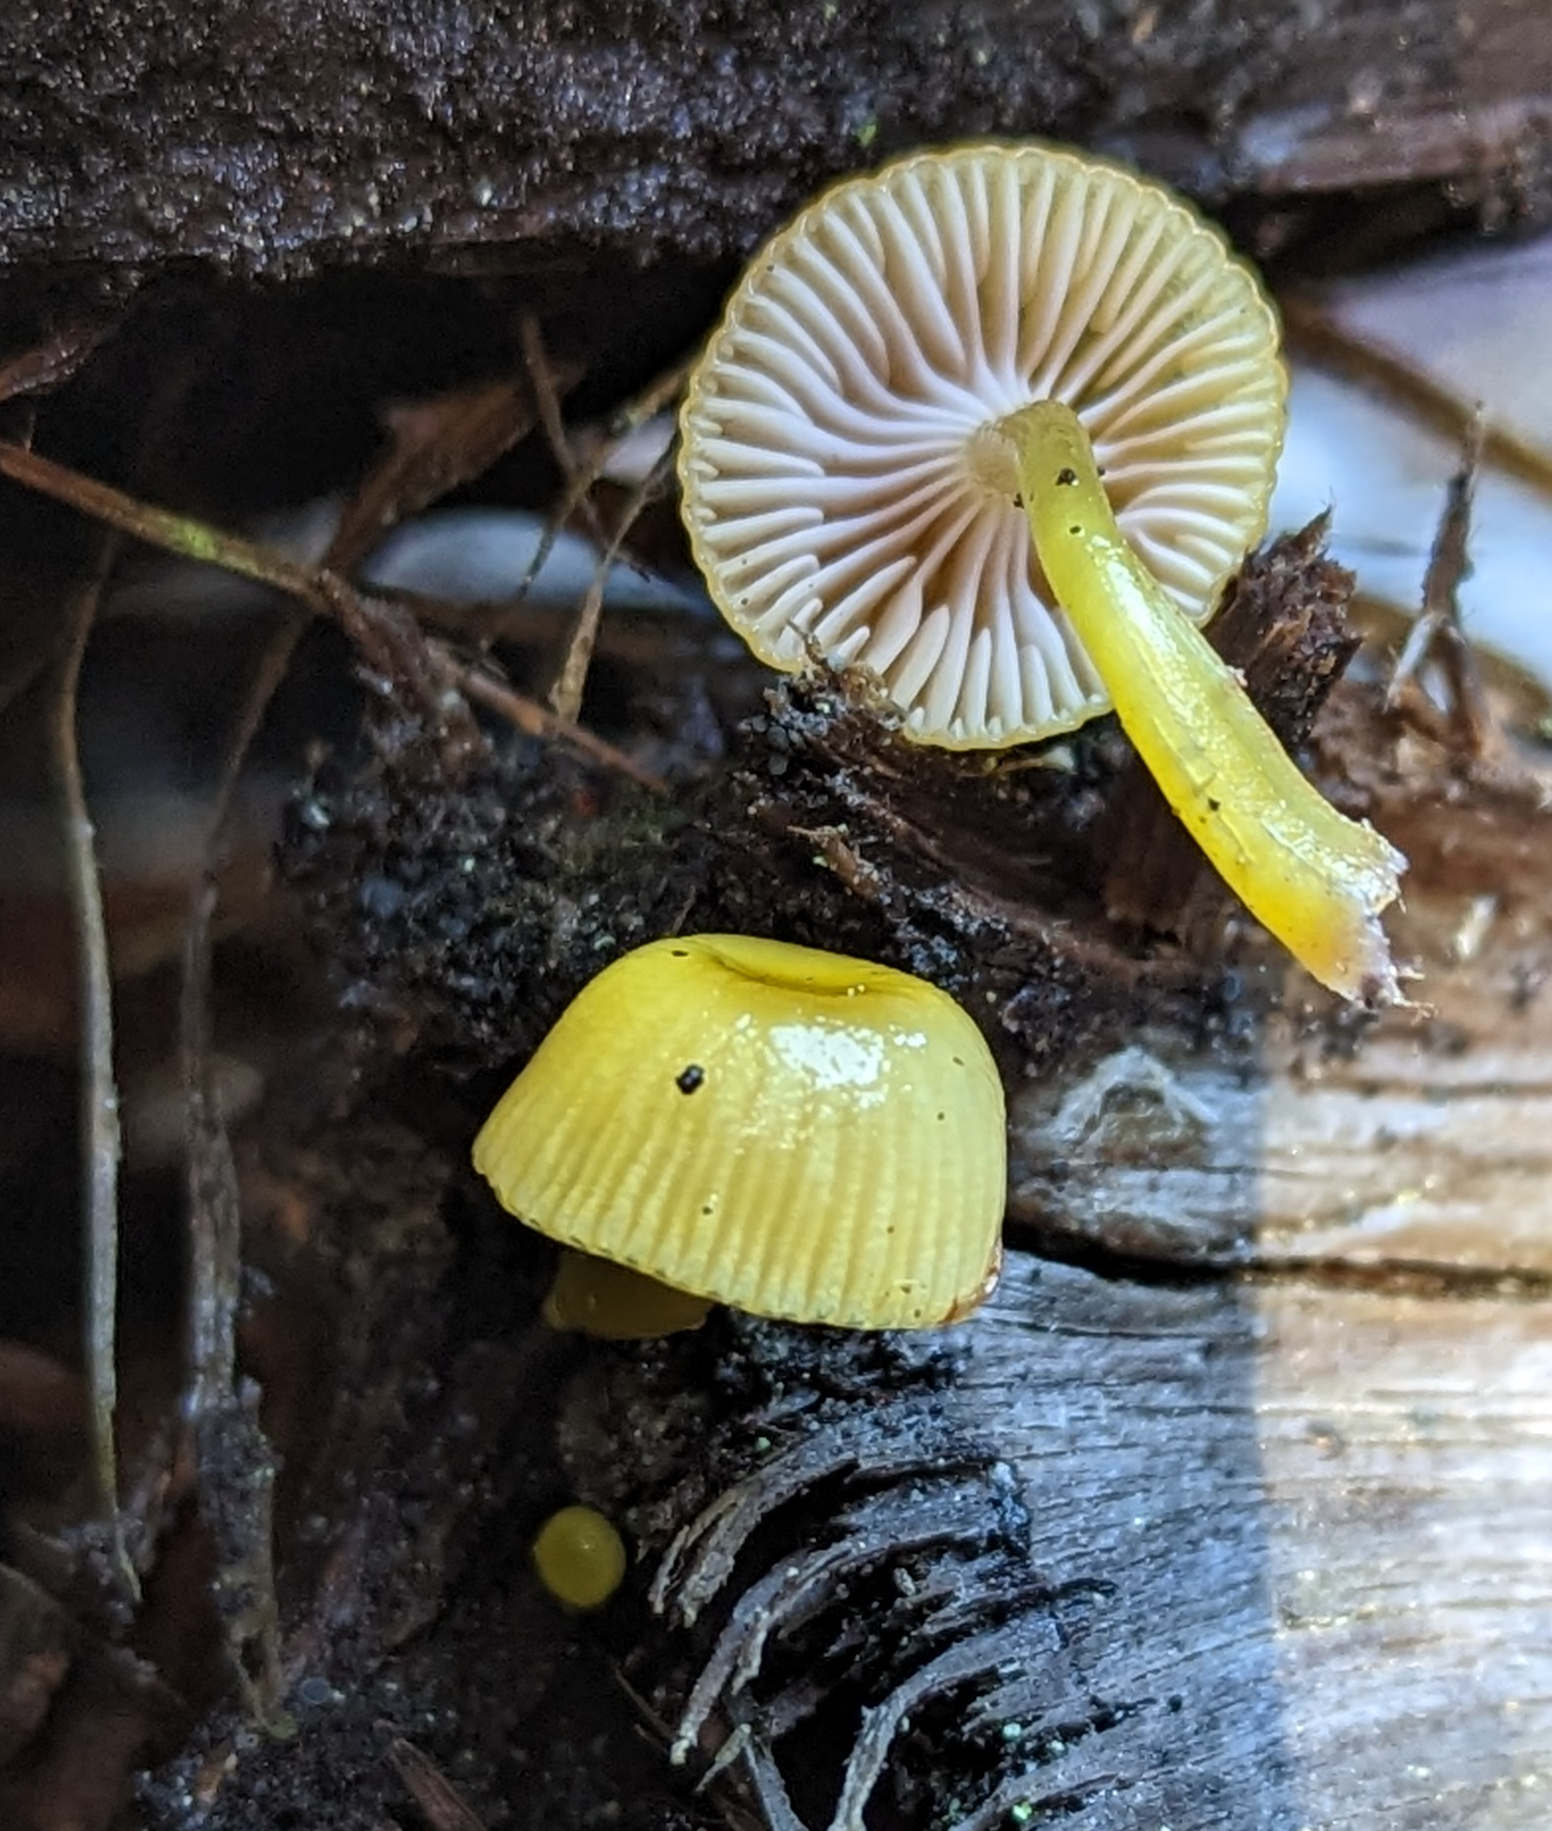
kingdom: Fungi
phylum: Basidiomycota
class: Agaricomycetes
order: Agaricales
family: Hygrophoraceae
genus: Chromosera
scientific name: Chromosera cyanophylla
